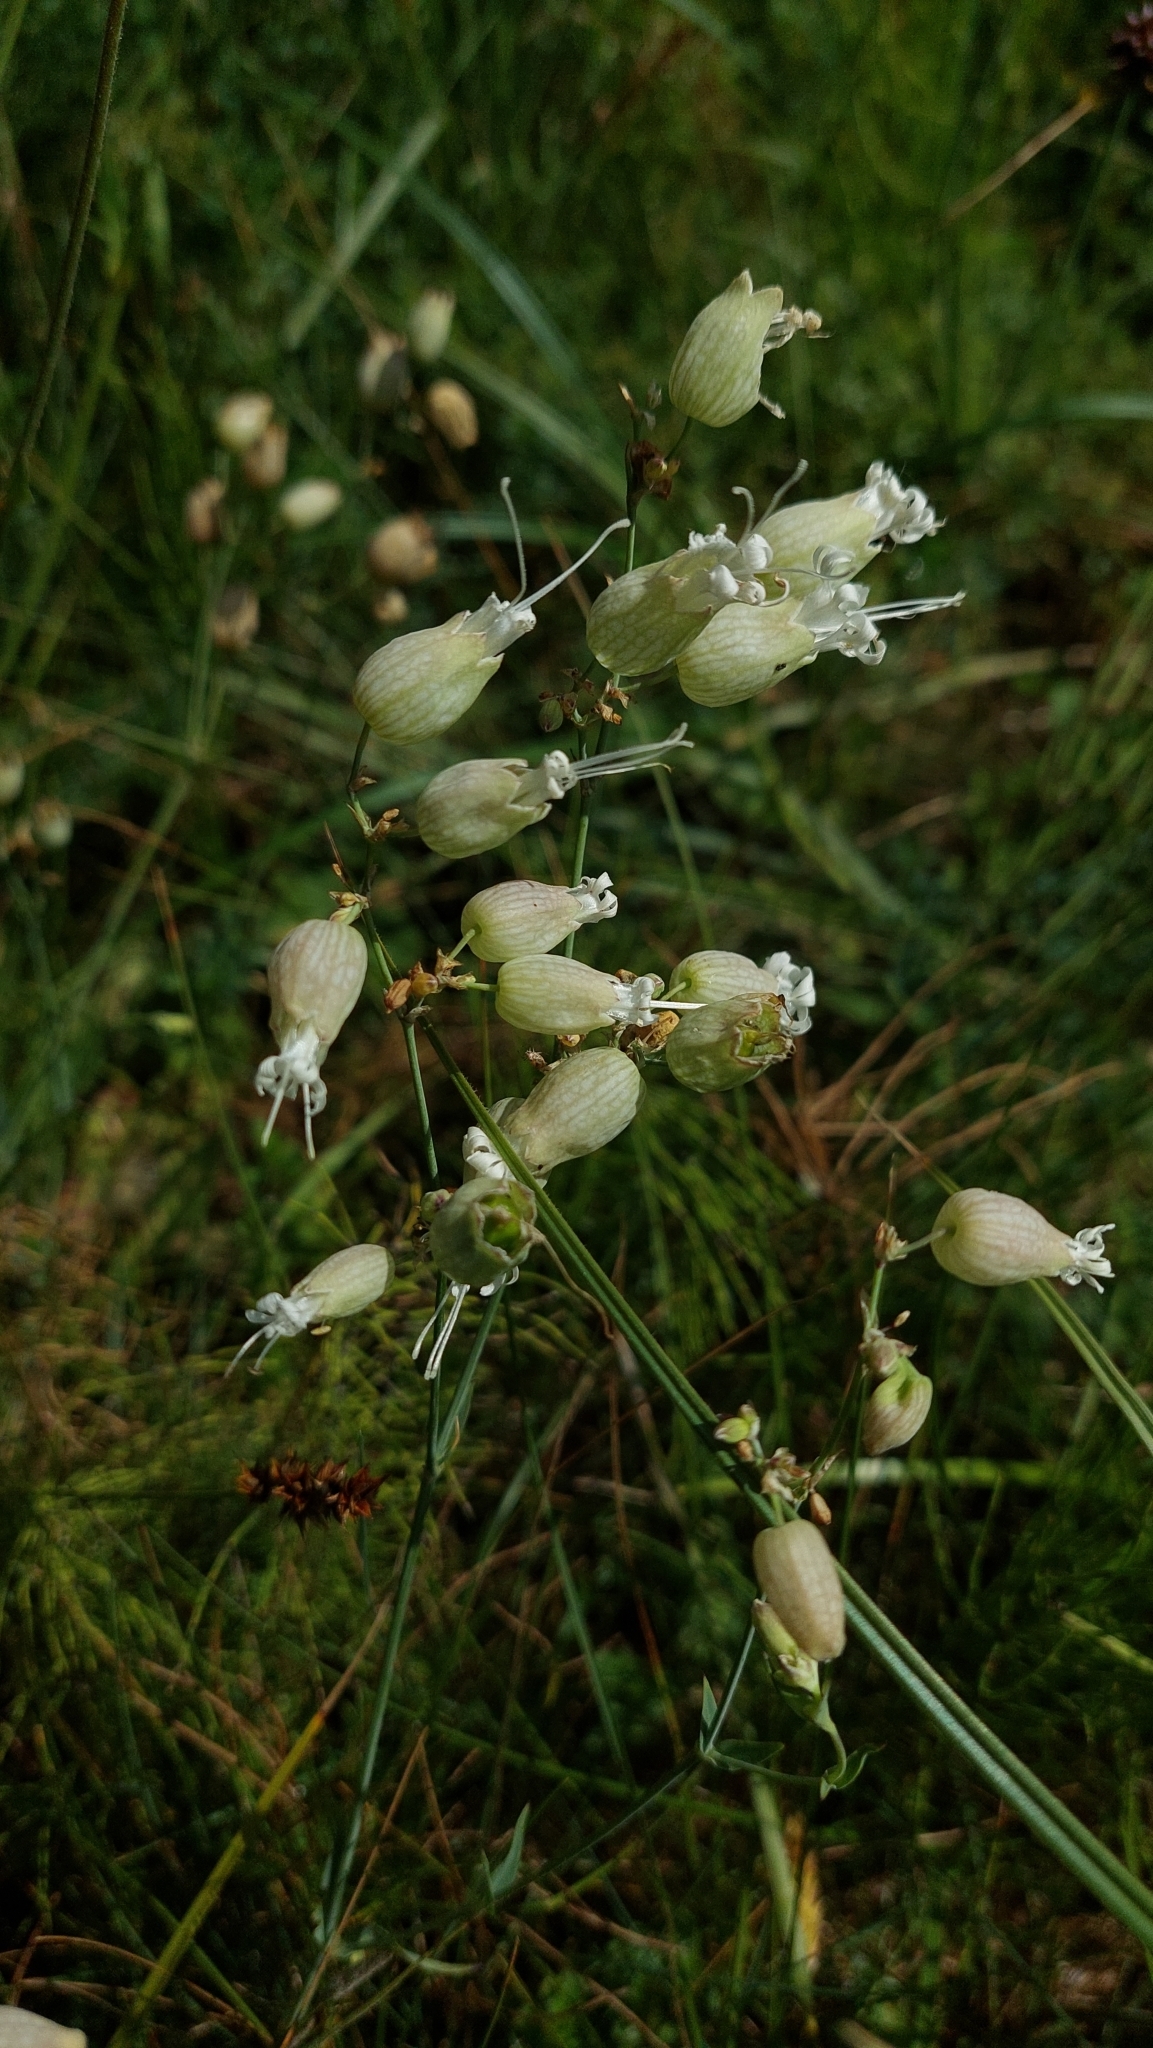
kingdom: Plantae
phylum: Tracheophyta
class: Magnoliopsida
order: Caryophyllales
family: Caryophyllaceae
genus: Silene
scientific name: Silene vulgaris
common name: Bladder campion
